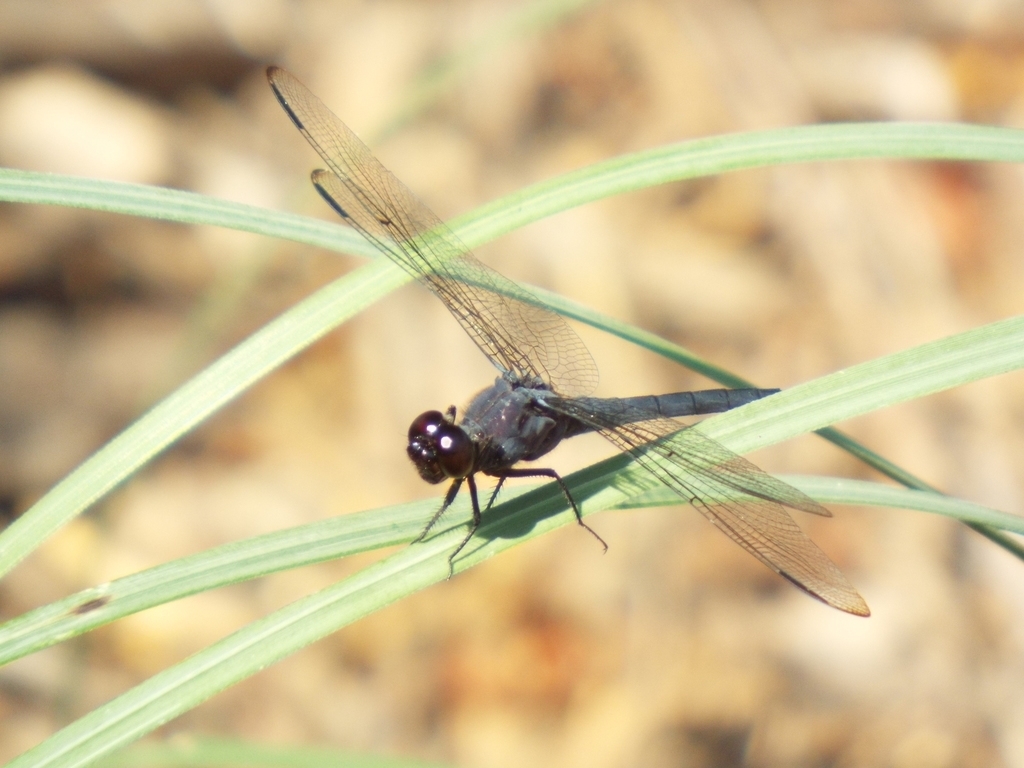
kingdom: Animalia
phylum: Arthropoda
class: Insecta
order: Odonata
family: Libellulidae
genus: Libellula
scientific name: Libellula incesta
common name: Slaty skimmer
